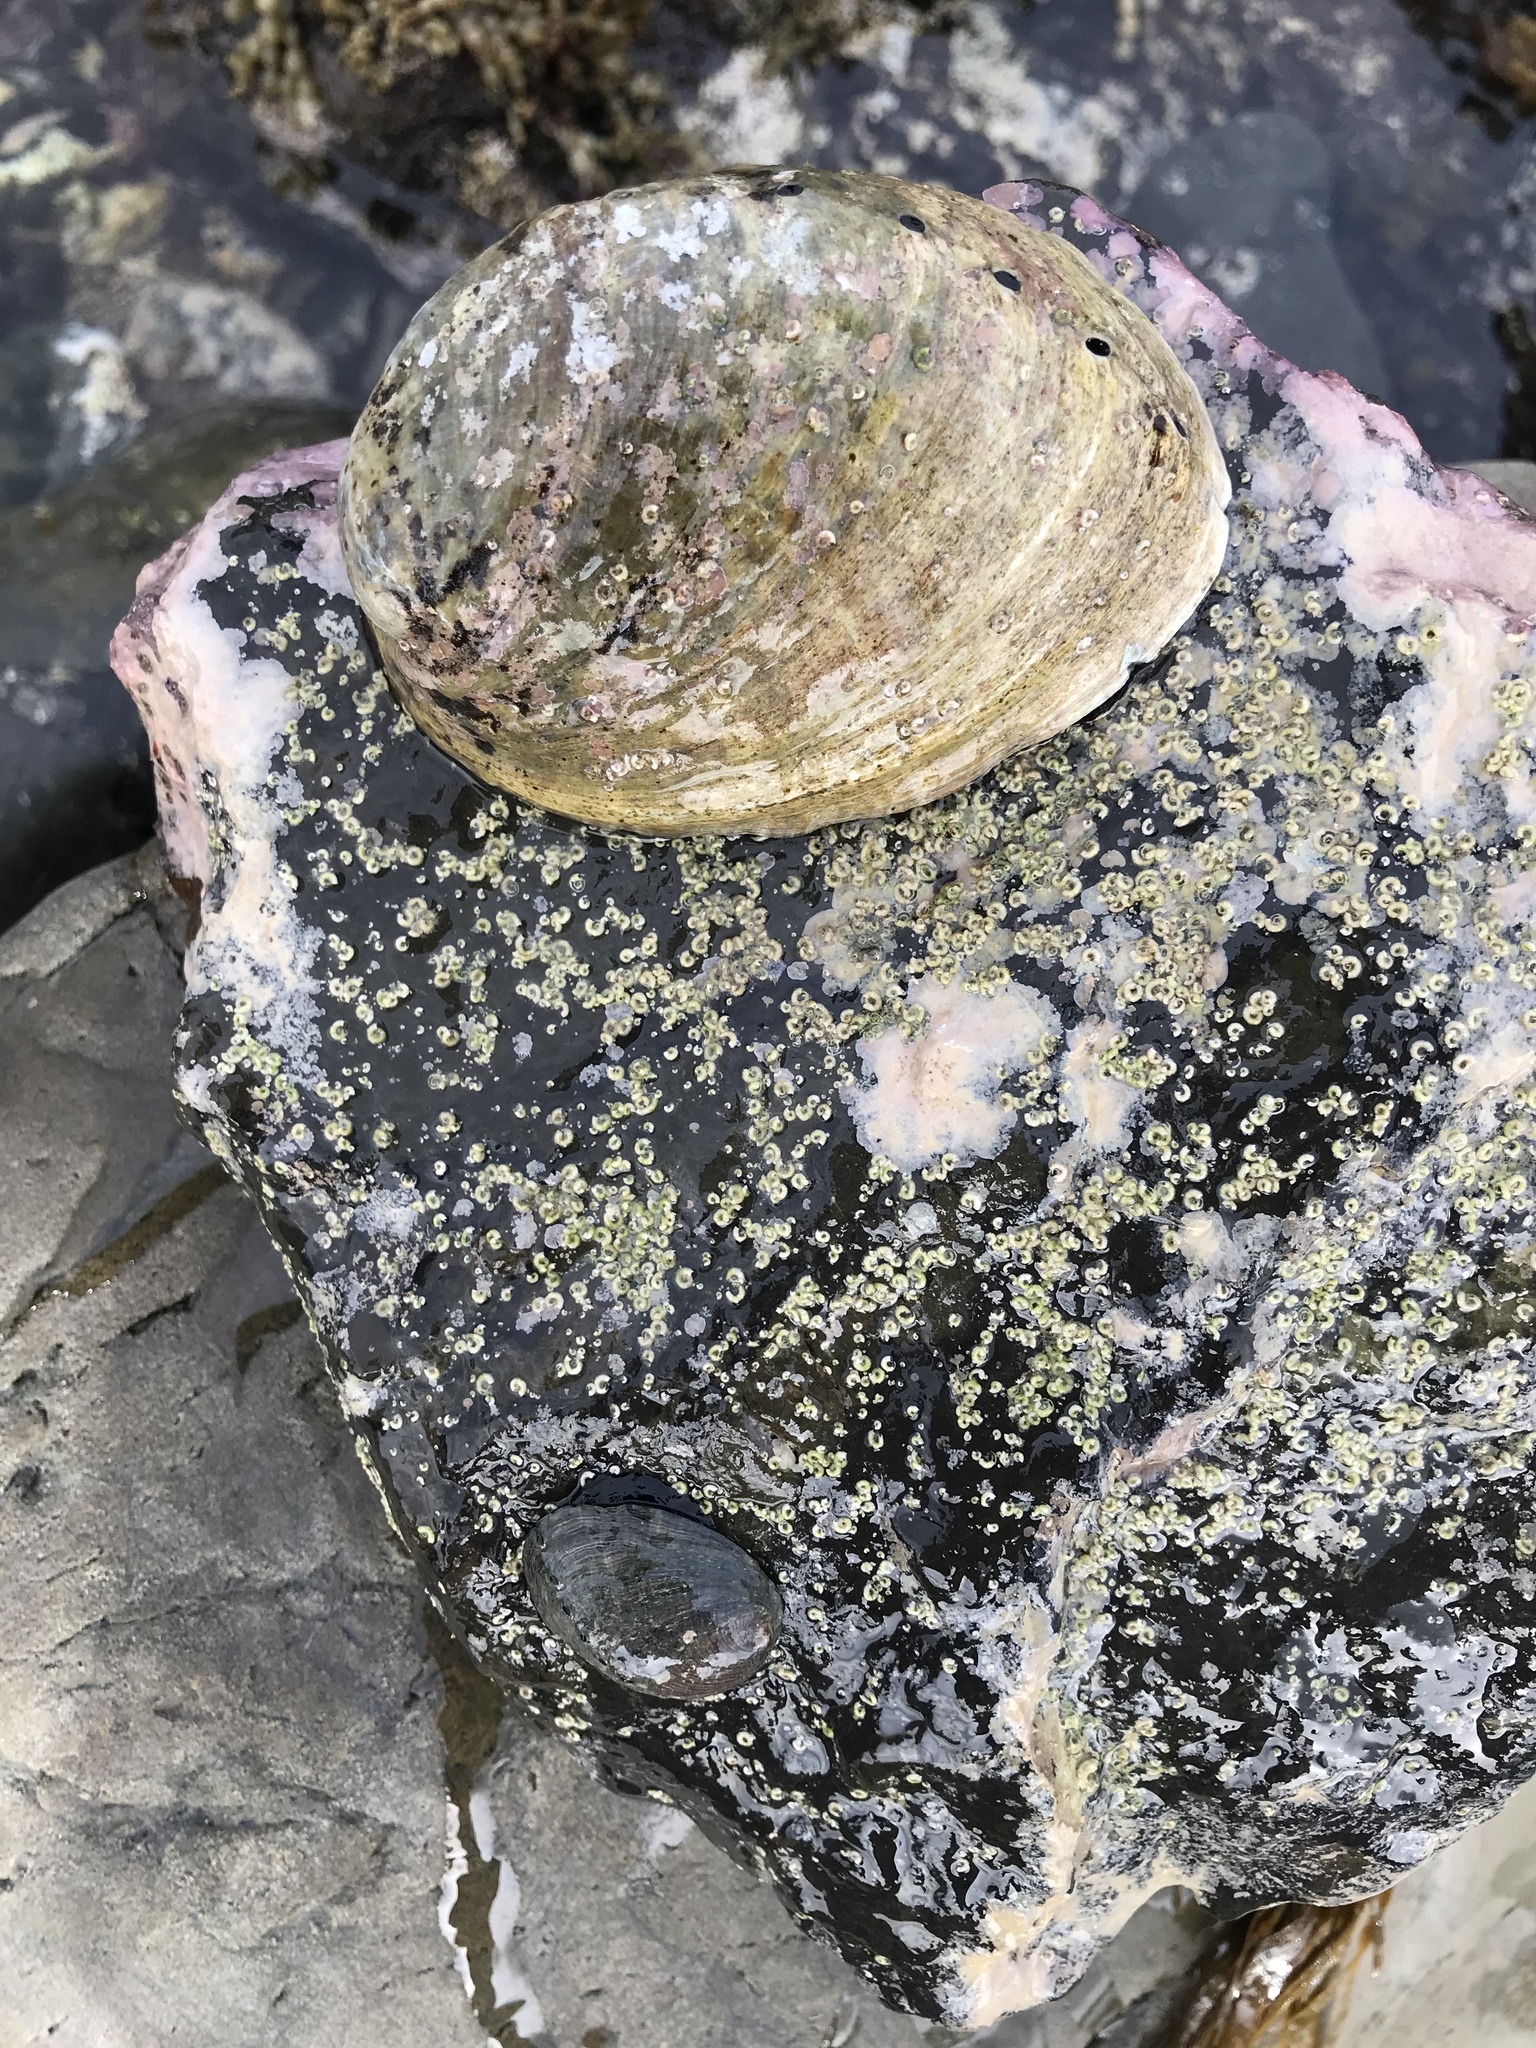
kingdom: Animalia
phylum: Mollusca
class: Gastropoda
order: Lepetellida
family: Haliotidae
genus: Haliotis
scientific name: Haliotis iris
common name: Abalone
